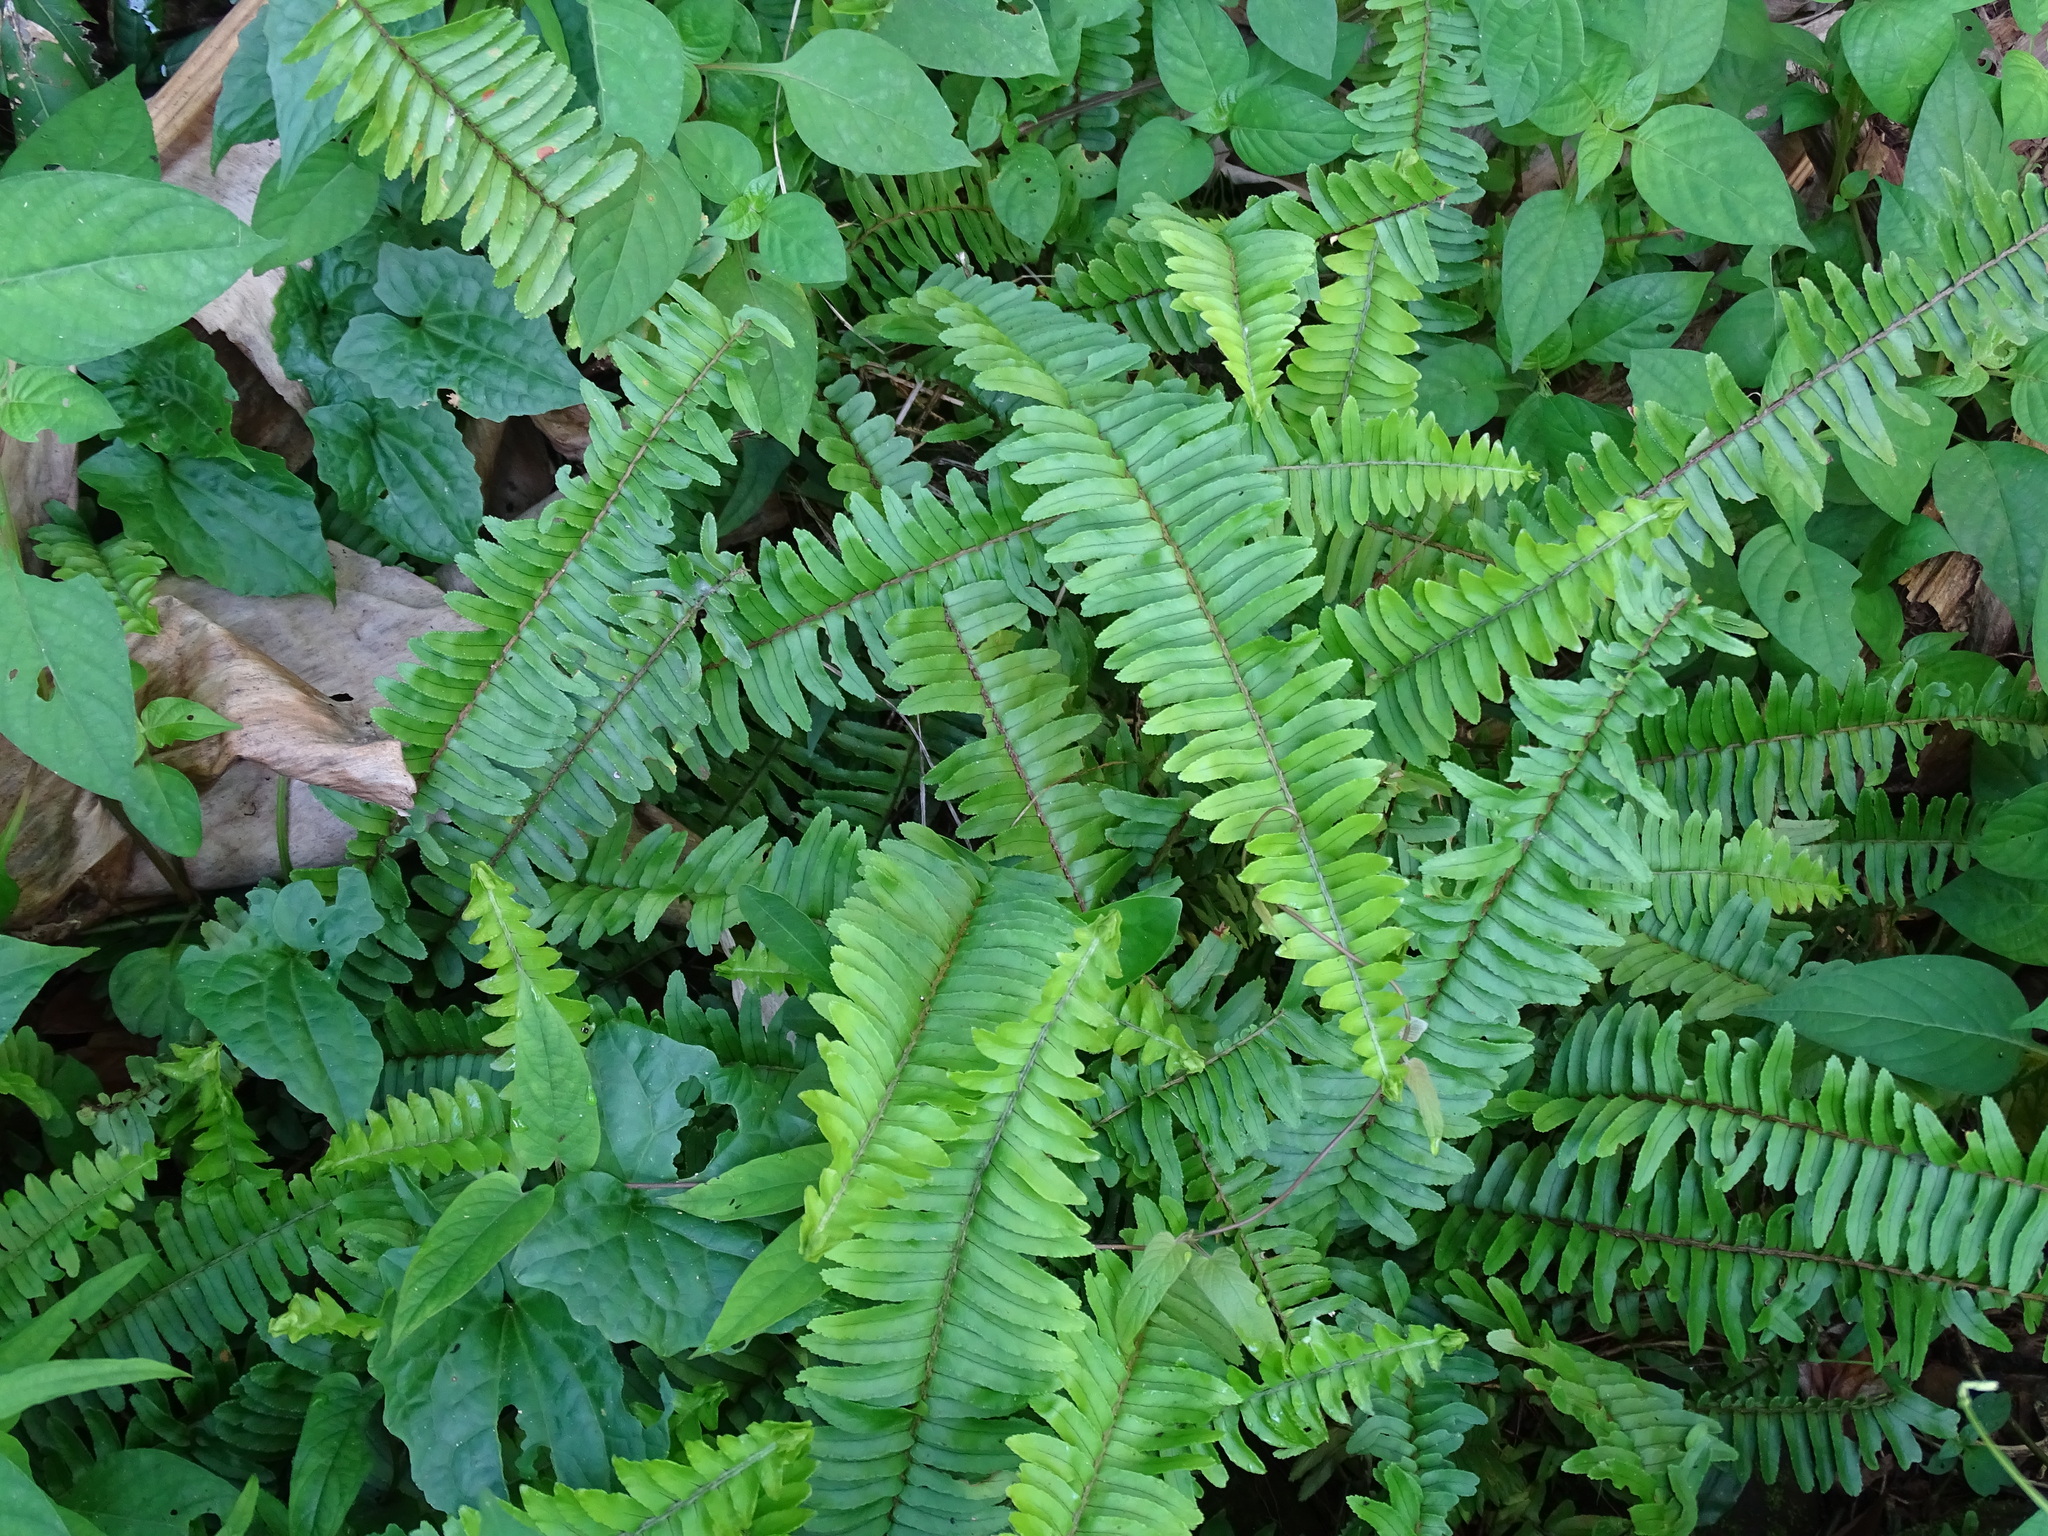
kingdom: Plantae
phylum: Tracheophyta
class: Polypodiopsida
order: Polypodiales
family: Nephrolepidaceae
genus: Nephrolepis
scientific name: Nephrolepis cordifolia
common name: Narrow swordfern
